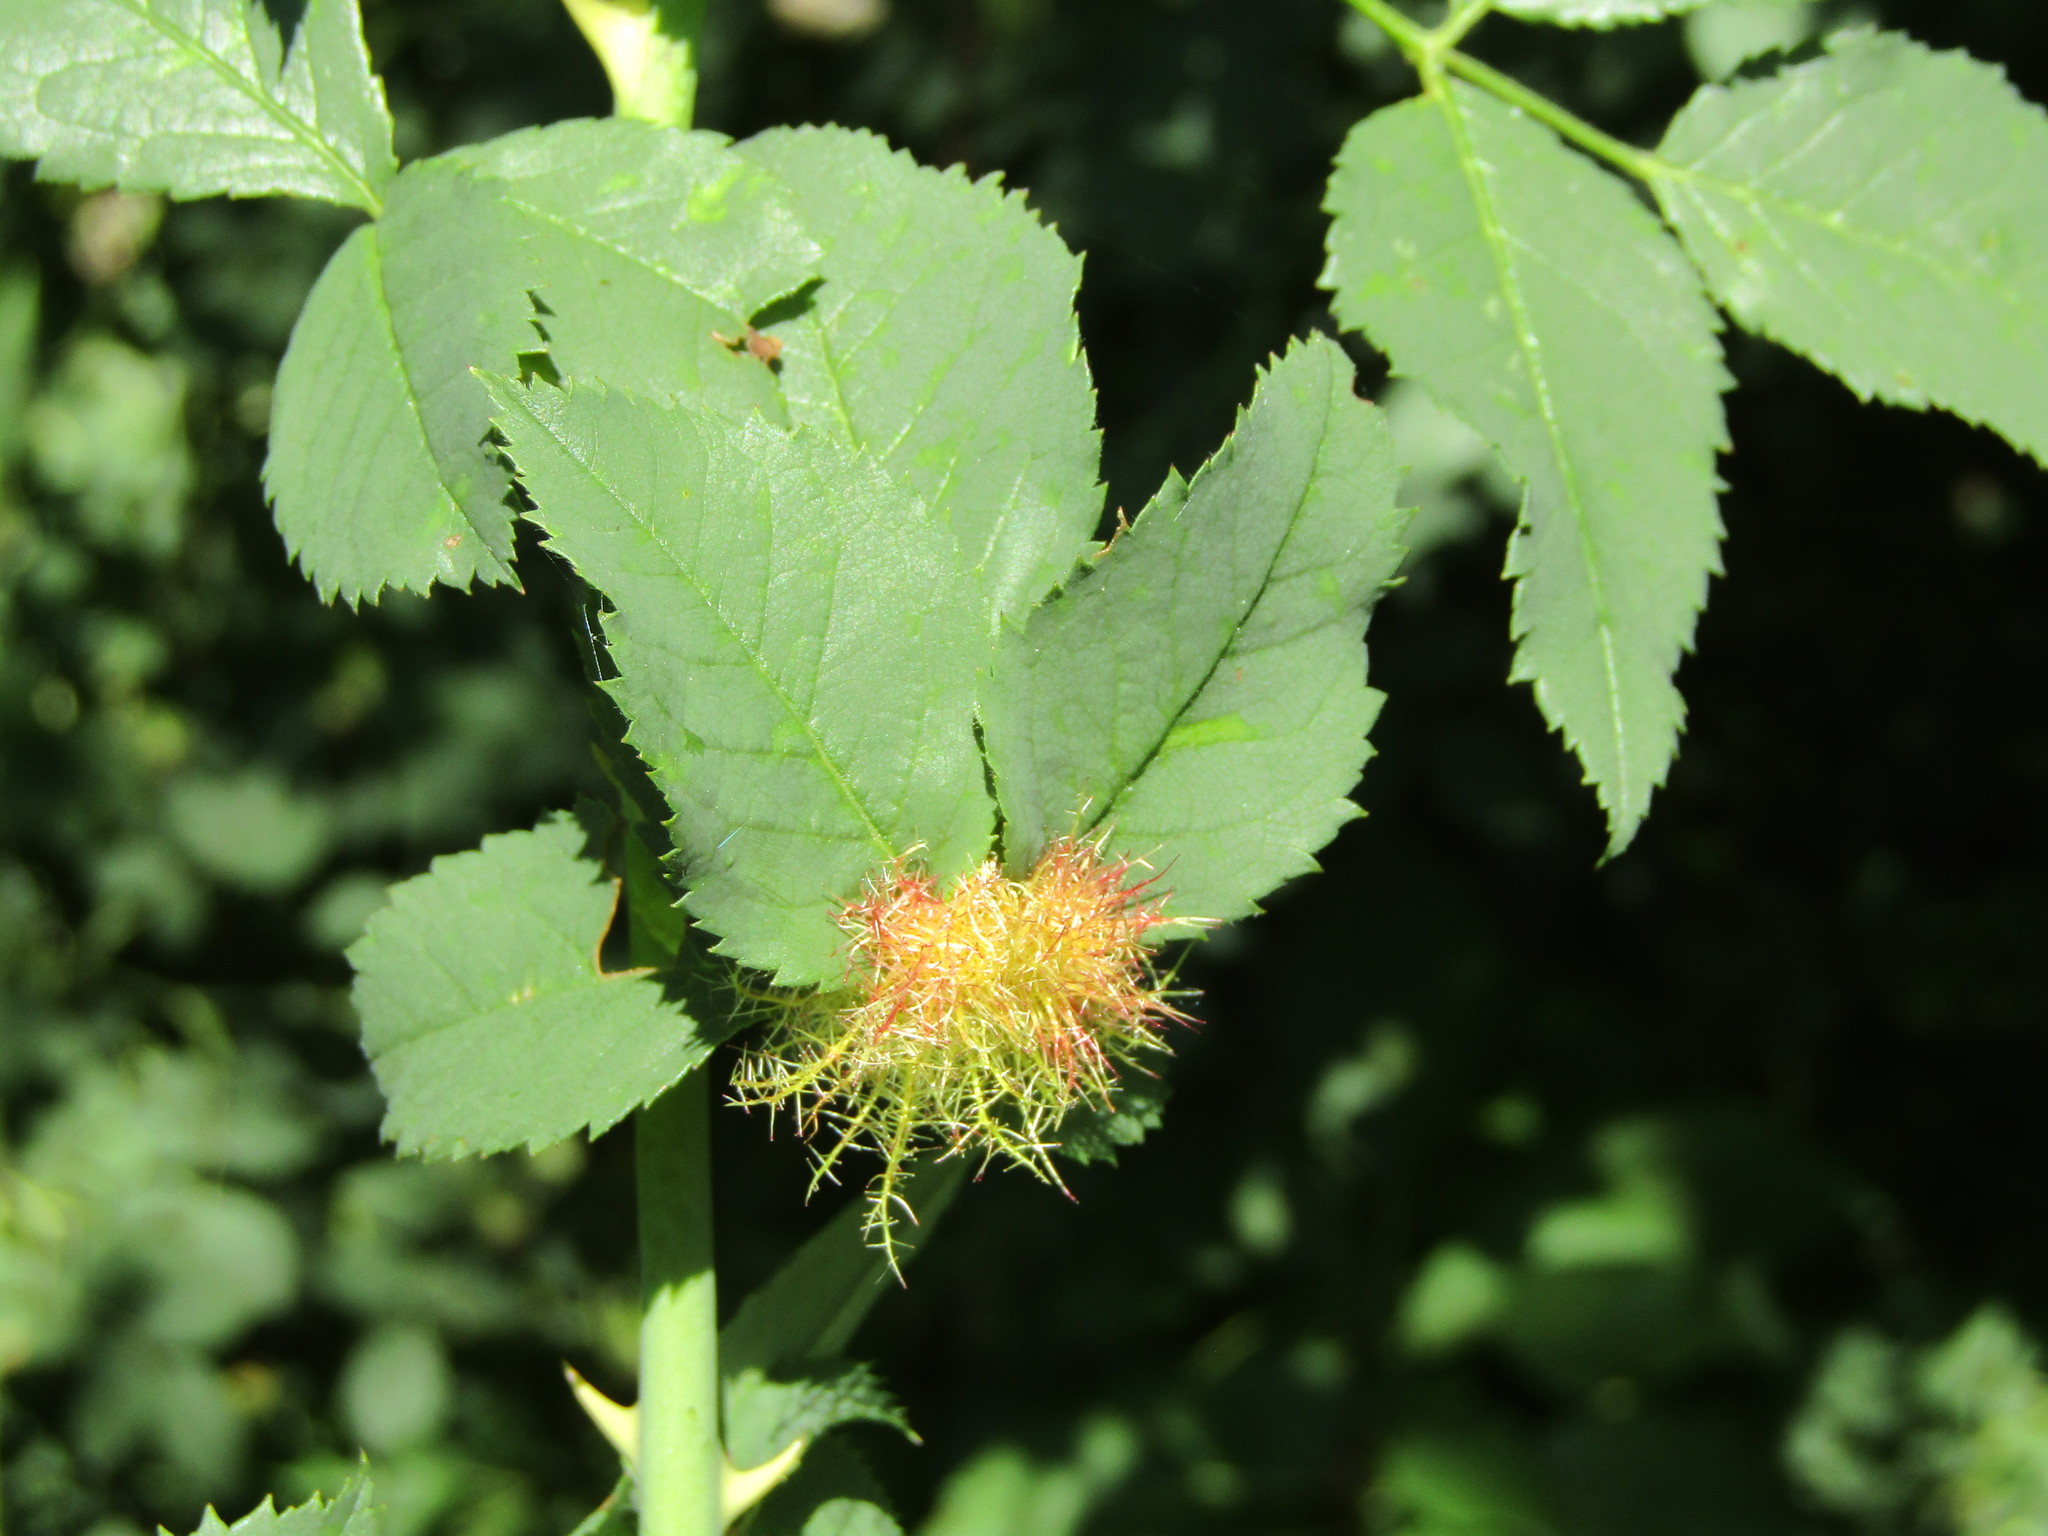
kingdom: Animalia
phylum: Arthropoda
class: Insecta
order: Hymenoptera
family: Cynipidae
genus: Diplolepis
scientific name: Diplolepis rosae
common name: Bedeguar gall
